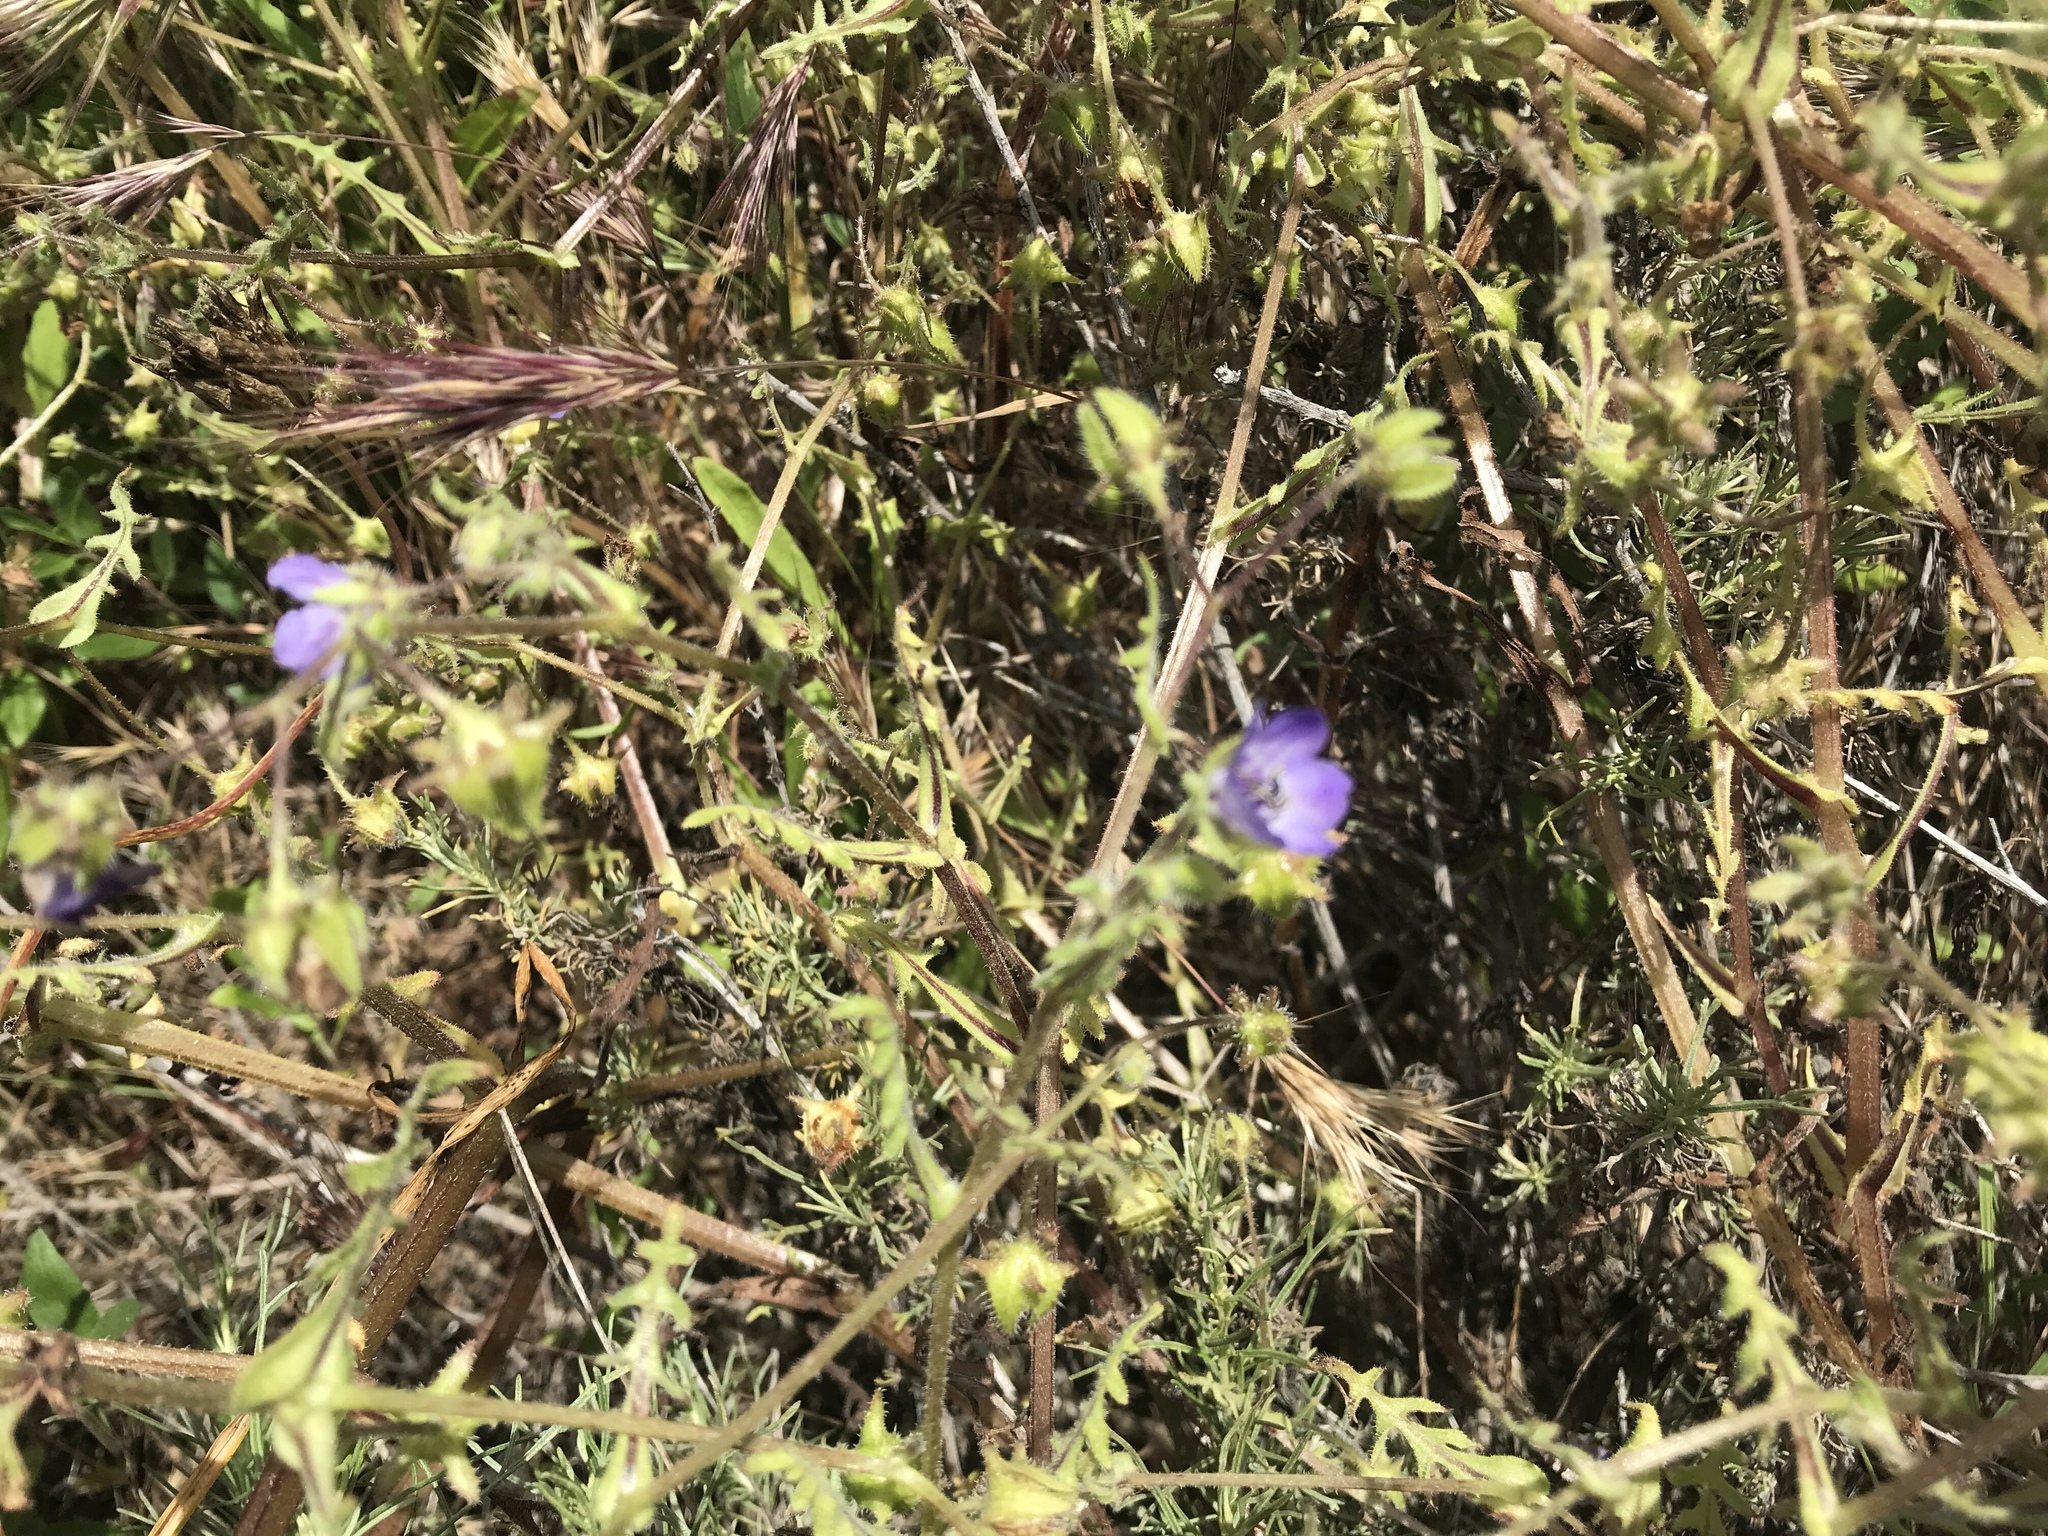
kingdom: Plantae
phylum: Tracheophyta
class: Magnoliopsida
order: Boraginales
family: Hydrophyllaceae
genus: Pholistoma
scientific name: Pholistoma auritum
